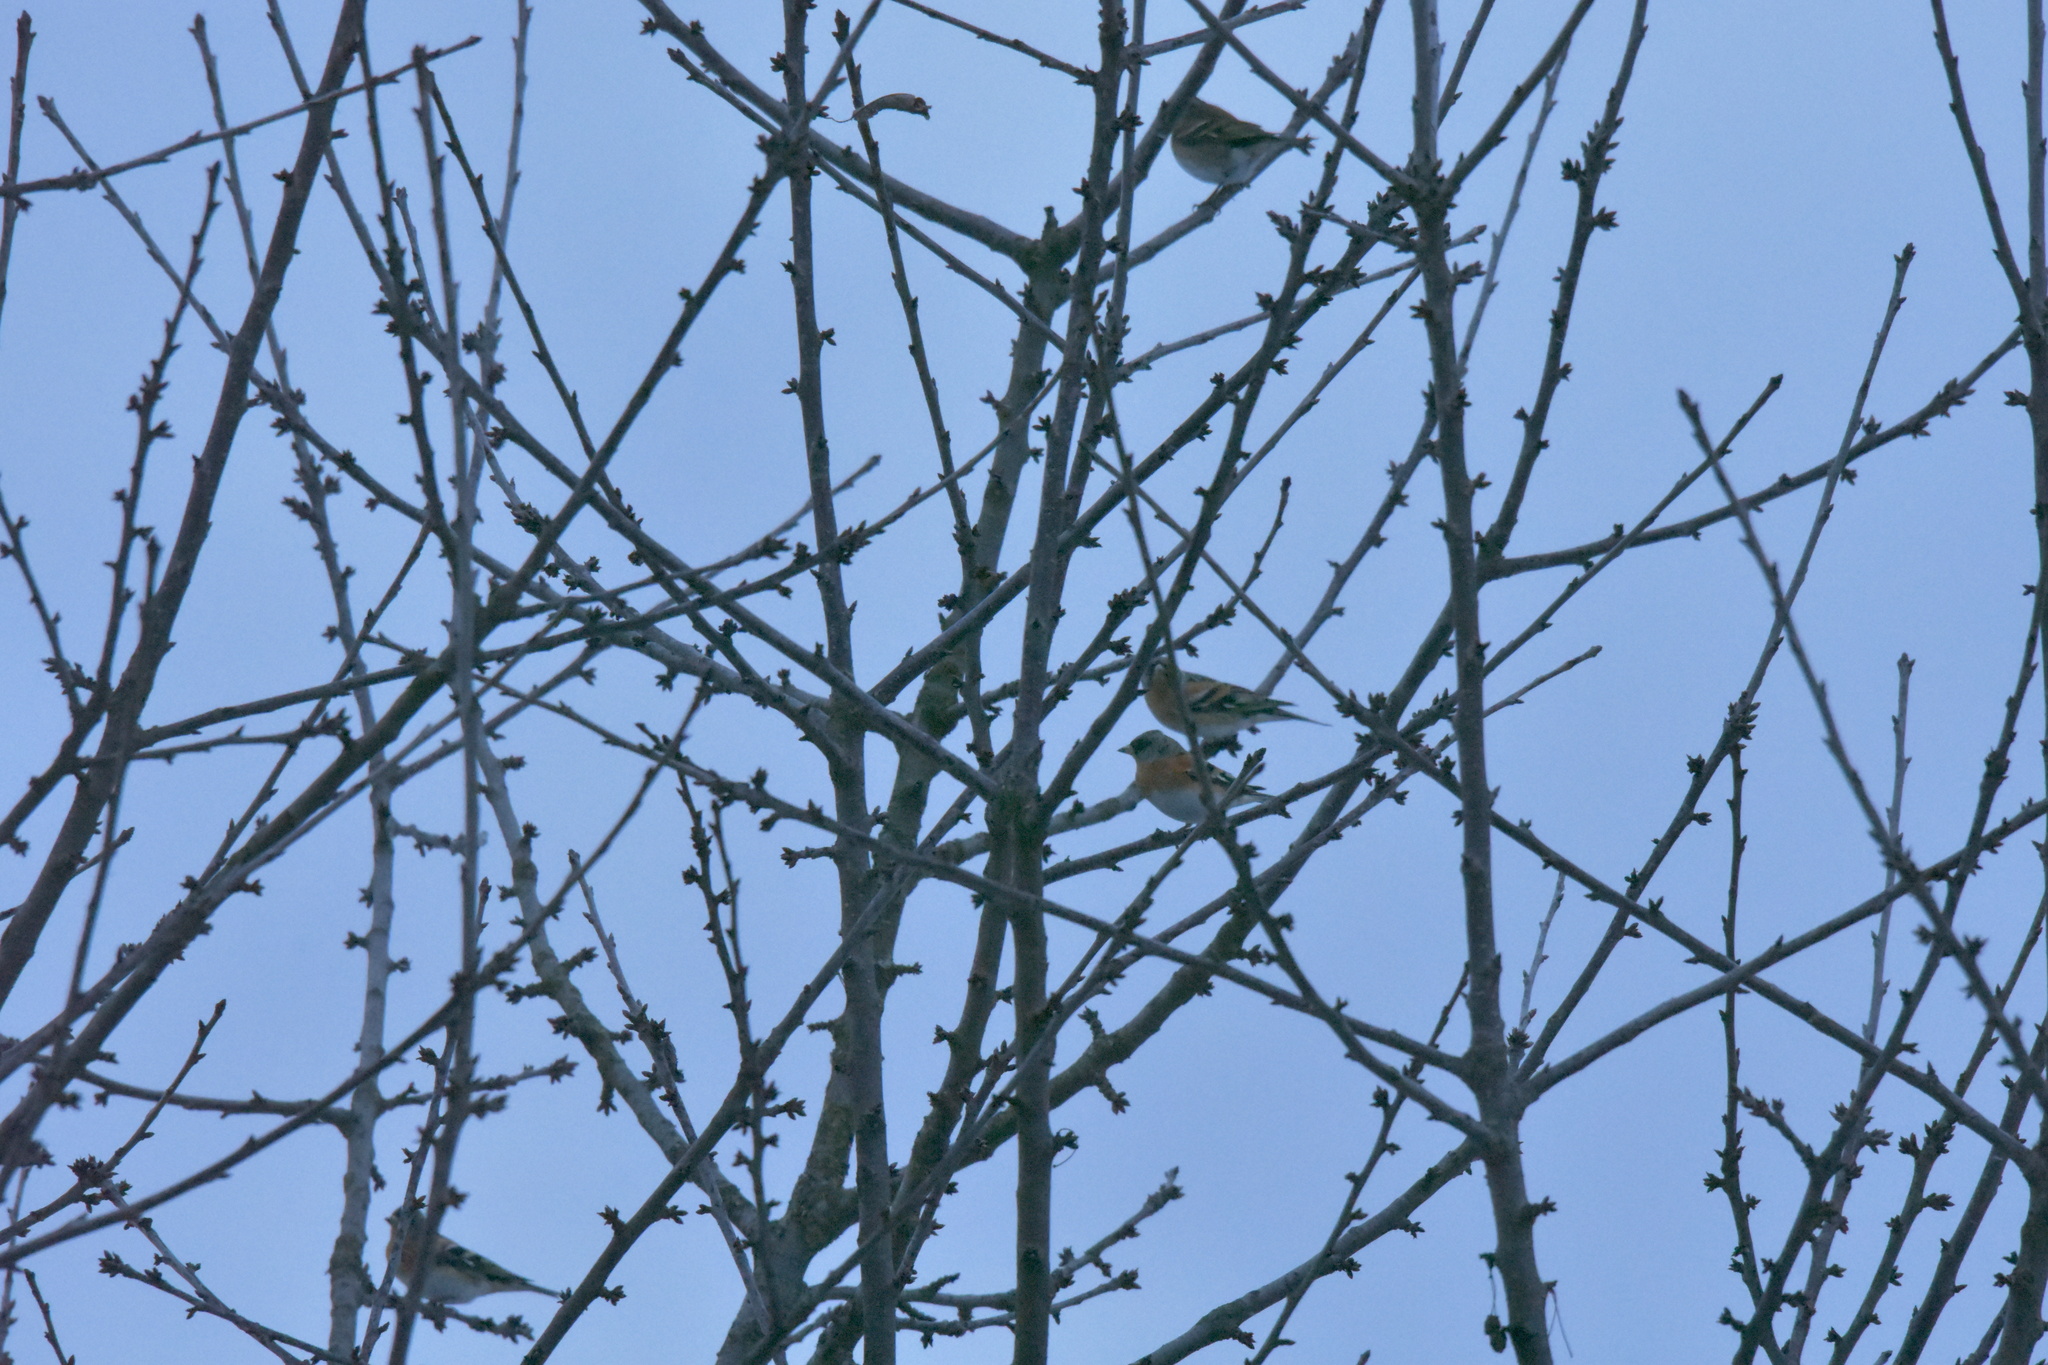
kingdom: Animalia
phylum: Chordata
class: Aves
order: Passeriformes
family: Fringillidae
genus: Fringilla
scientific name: Fringilla montifringilla
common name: Brambling
